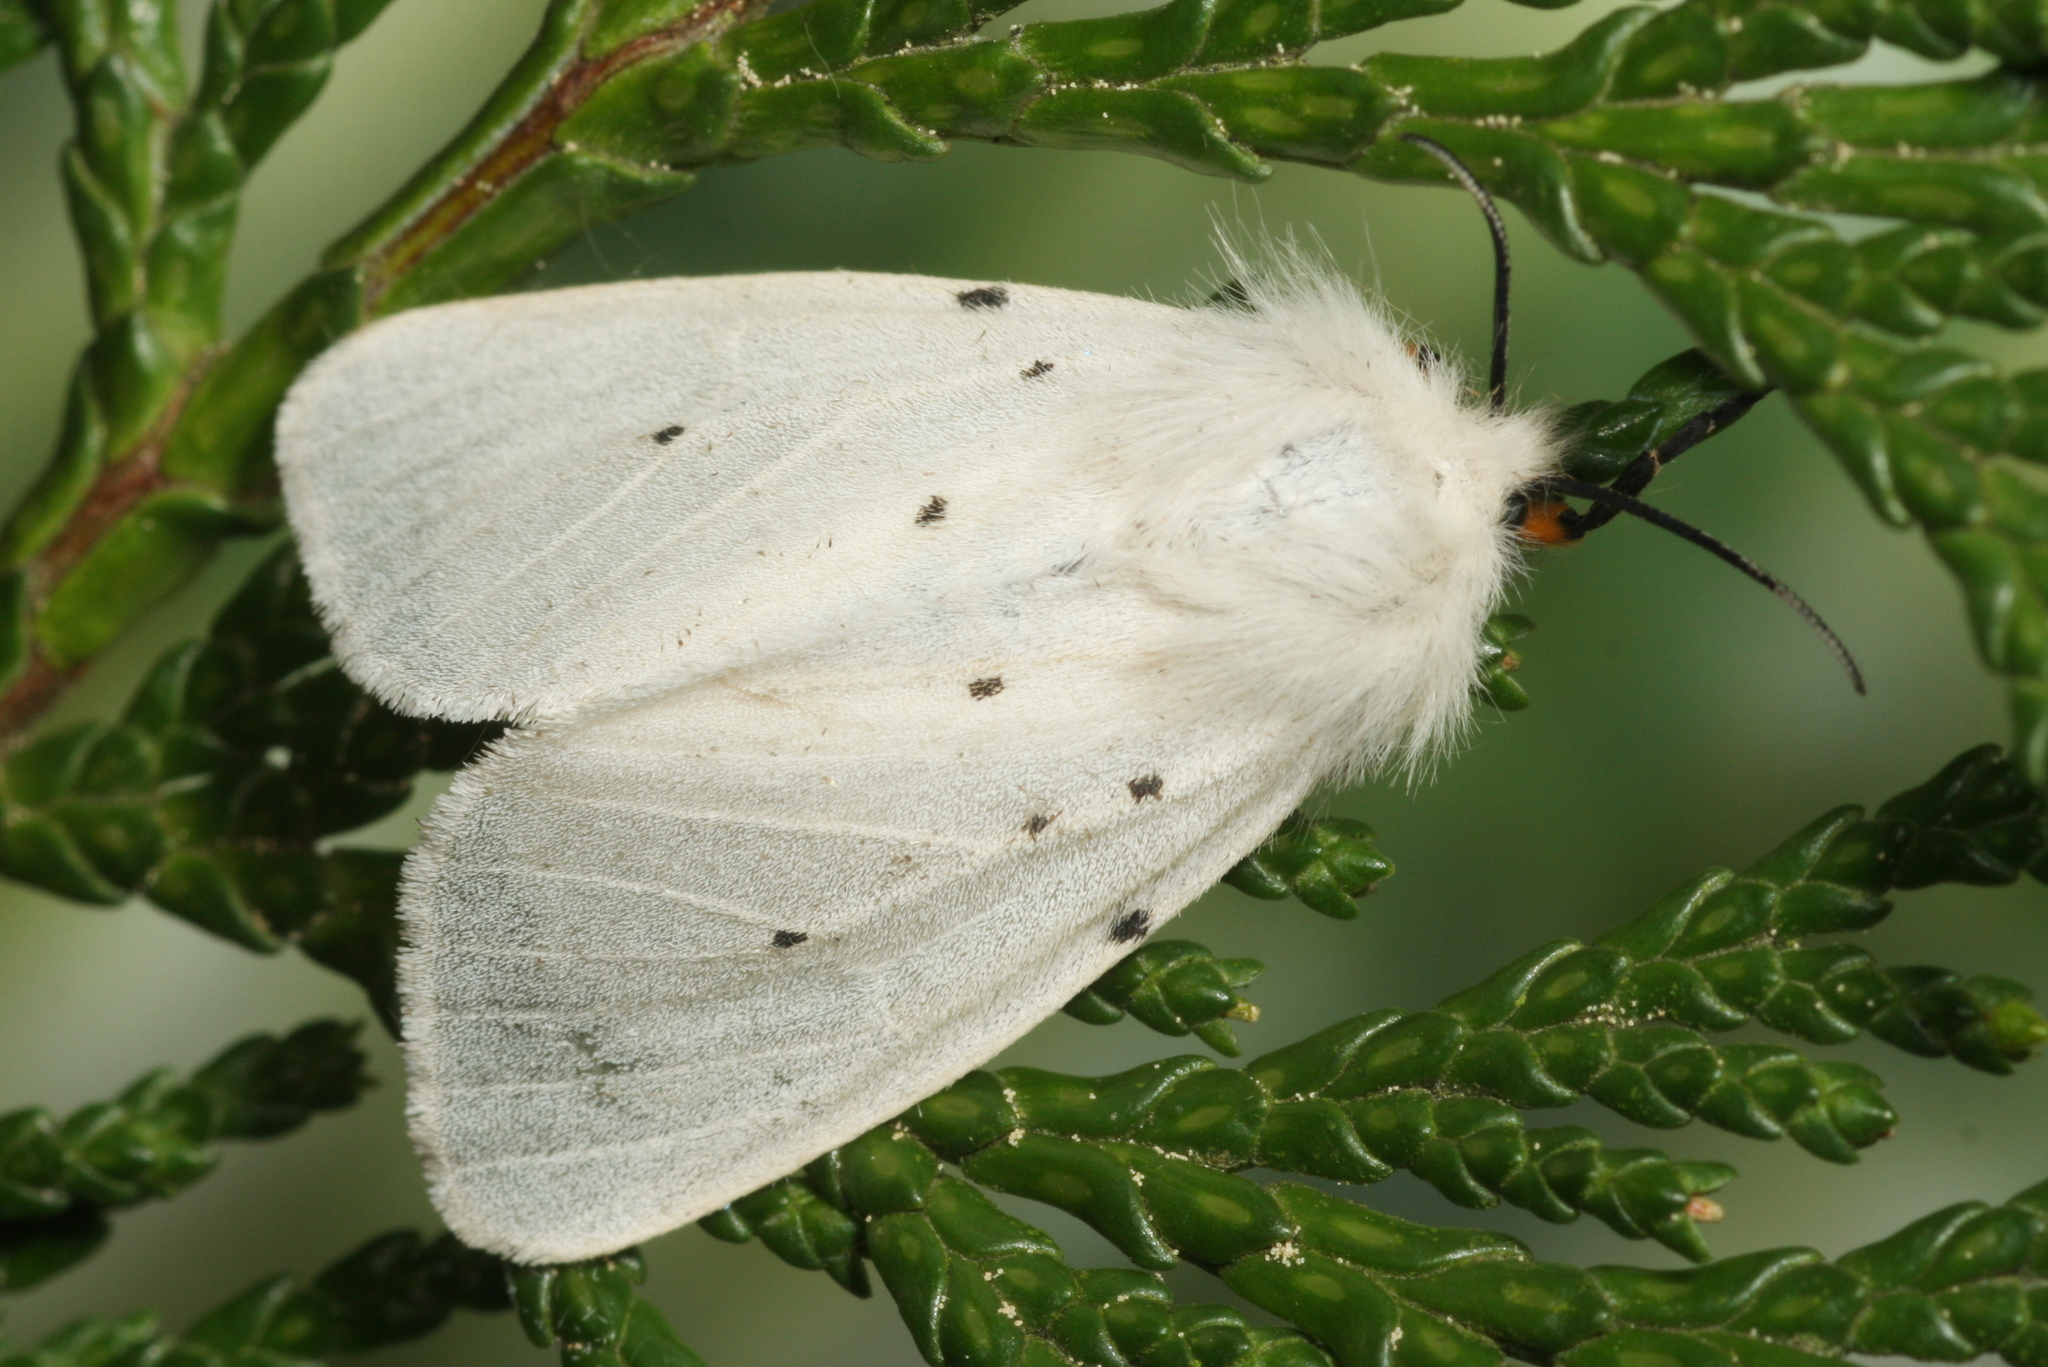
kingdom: Animalia
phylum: Arthropoda
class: Insecta
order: Lepidoptera
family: Erebidae
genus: Diaphora
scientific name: Diaphora mendica
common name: Muslin moth
